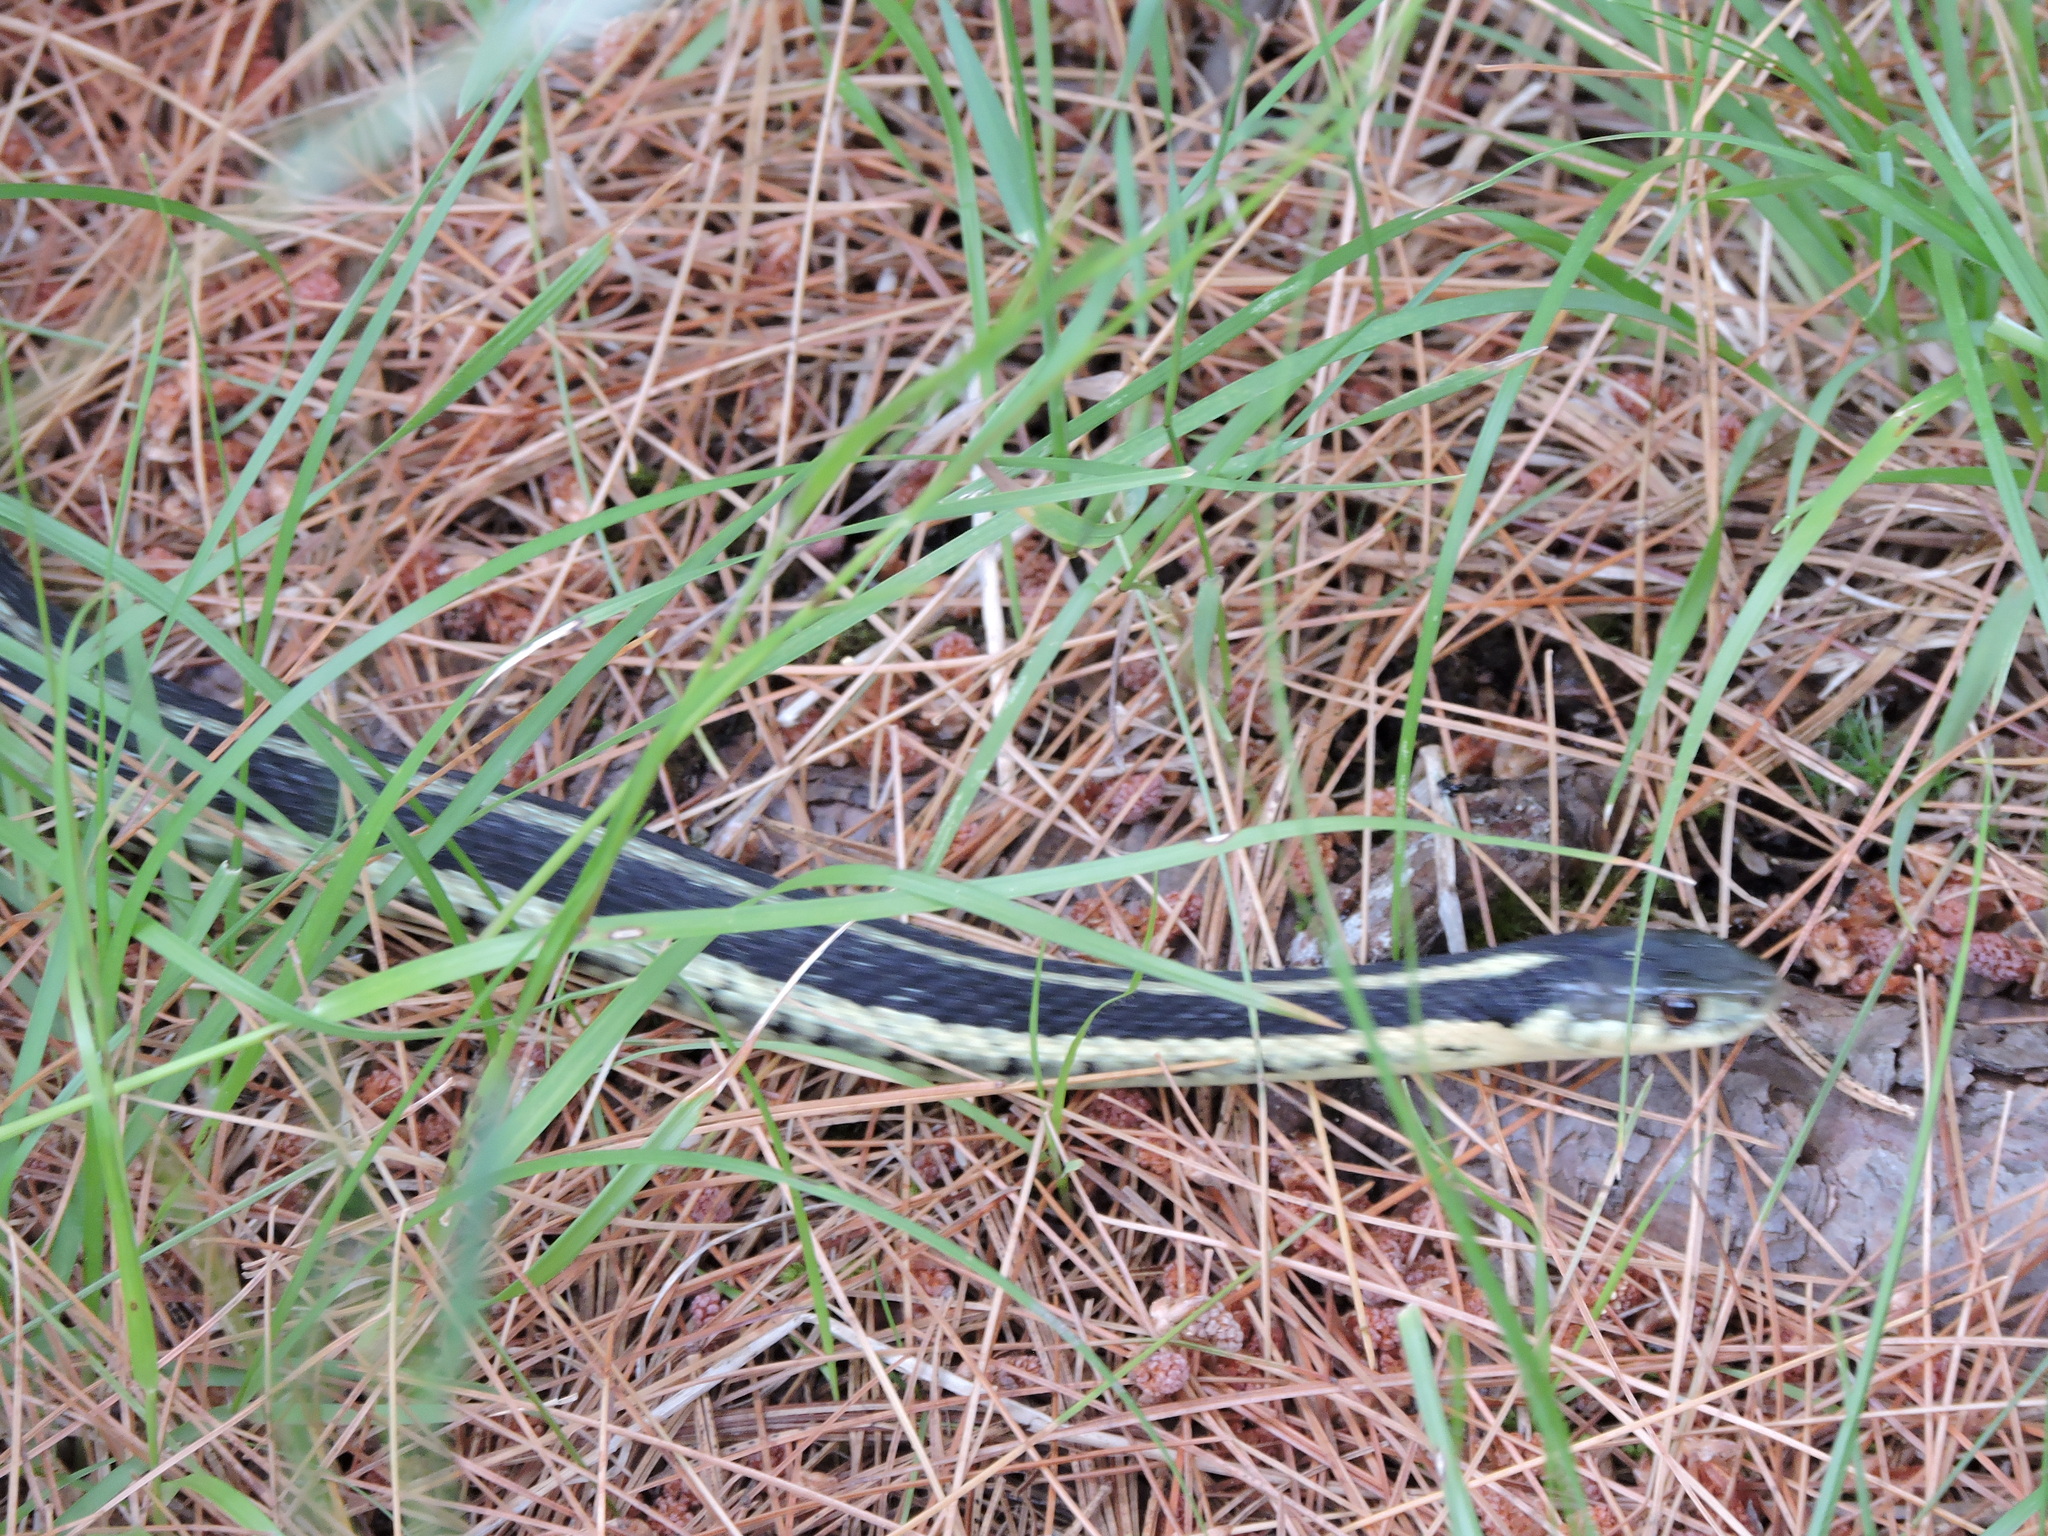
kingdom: Animalia
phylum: Chordata
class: Squamata
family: Colubridae
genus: Thamnophis
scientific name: Thamnophis sirtalis
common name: Common garter snake
